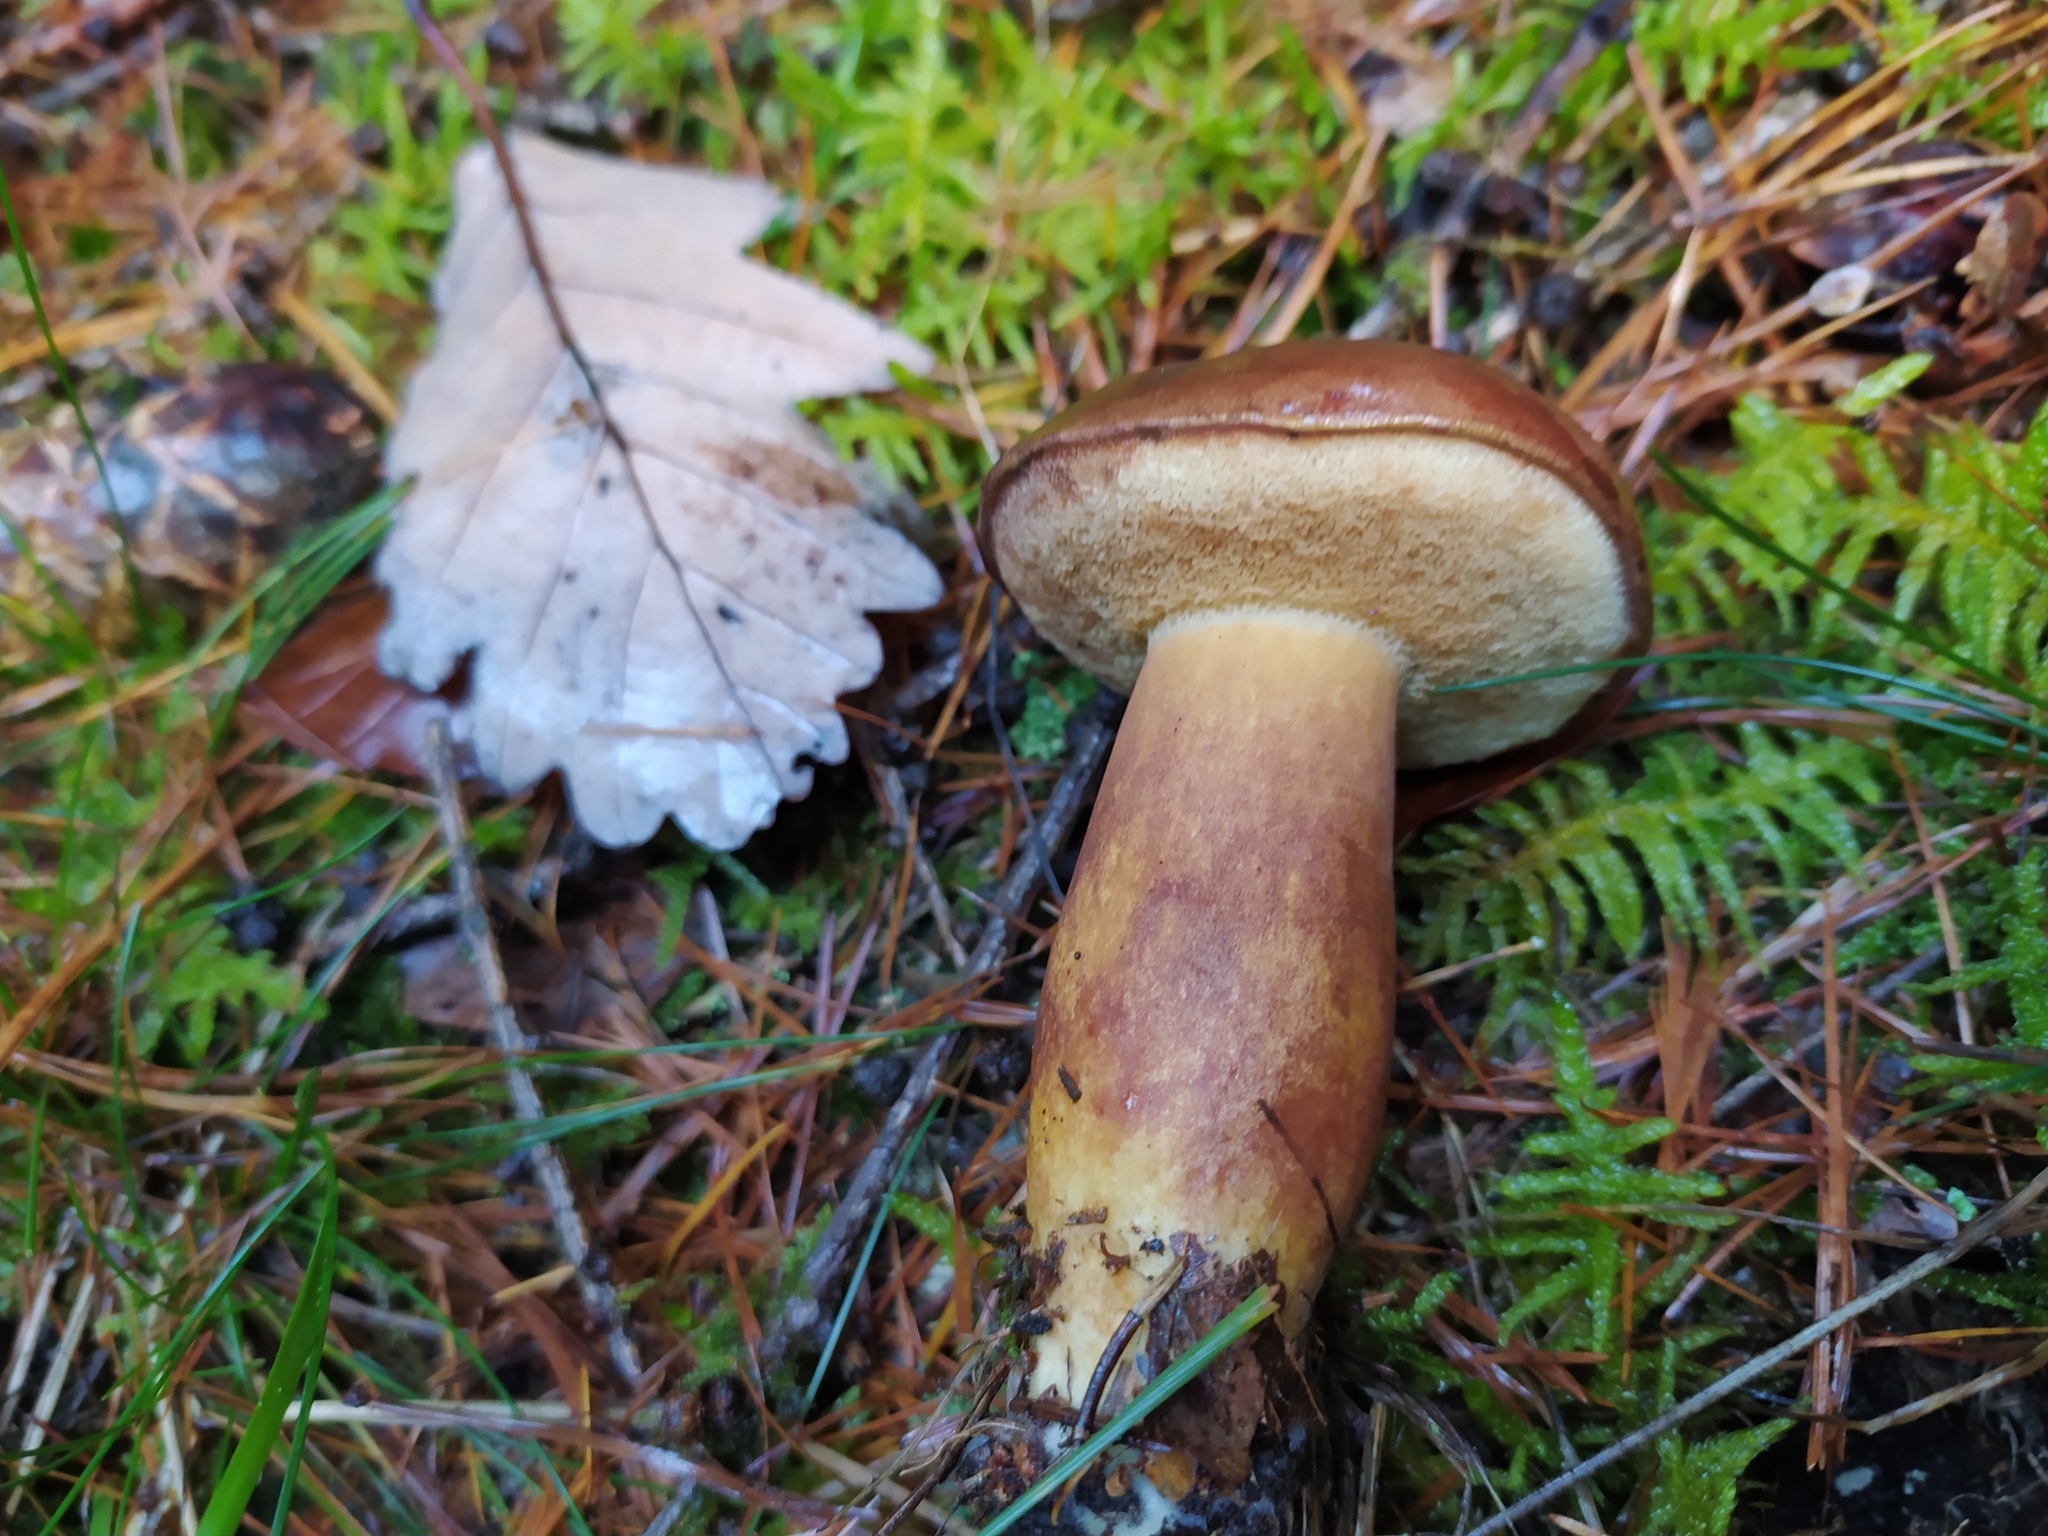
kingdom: Fungi
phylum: Basidiomycota
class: Agaricomycetes
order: Boletales
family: Boletaceae
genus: Imleria
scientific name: Imleria badia
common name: Bay bolete
